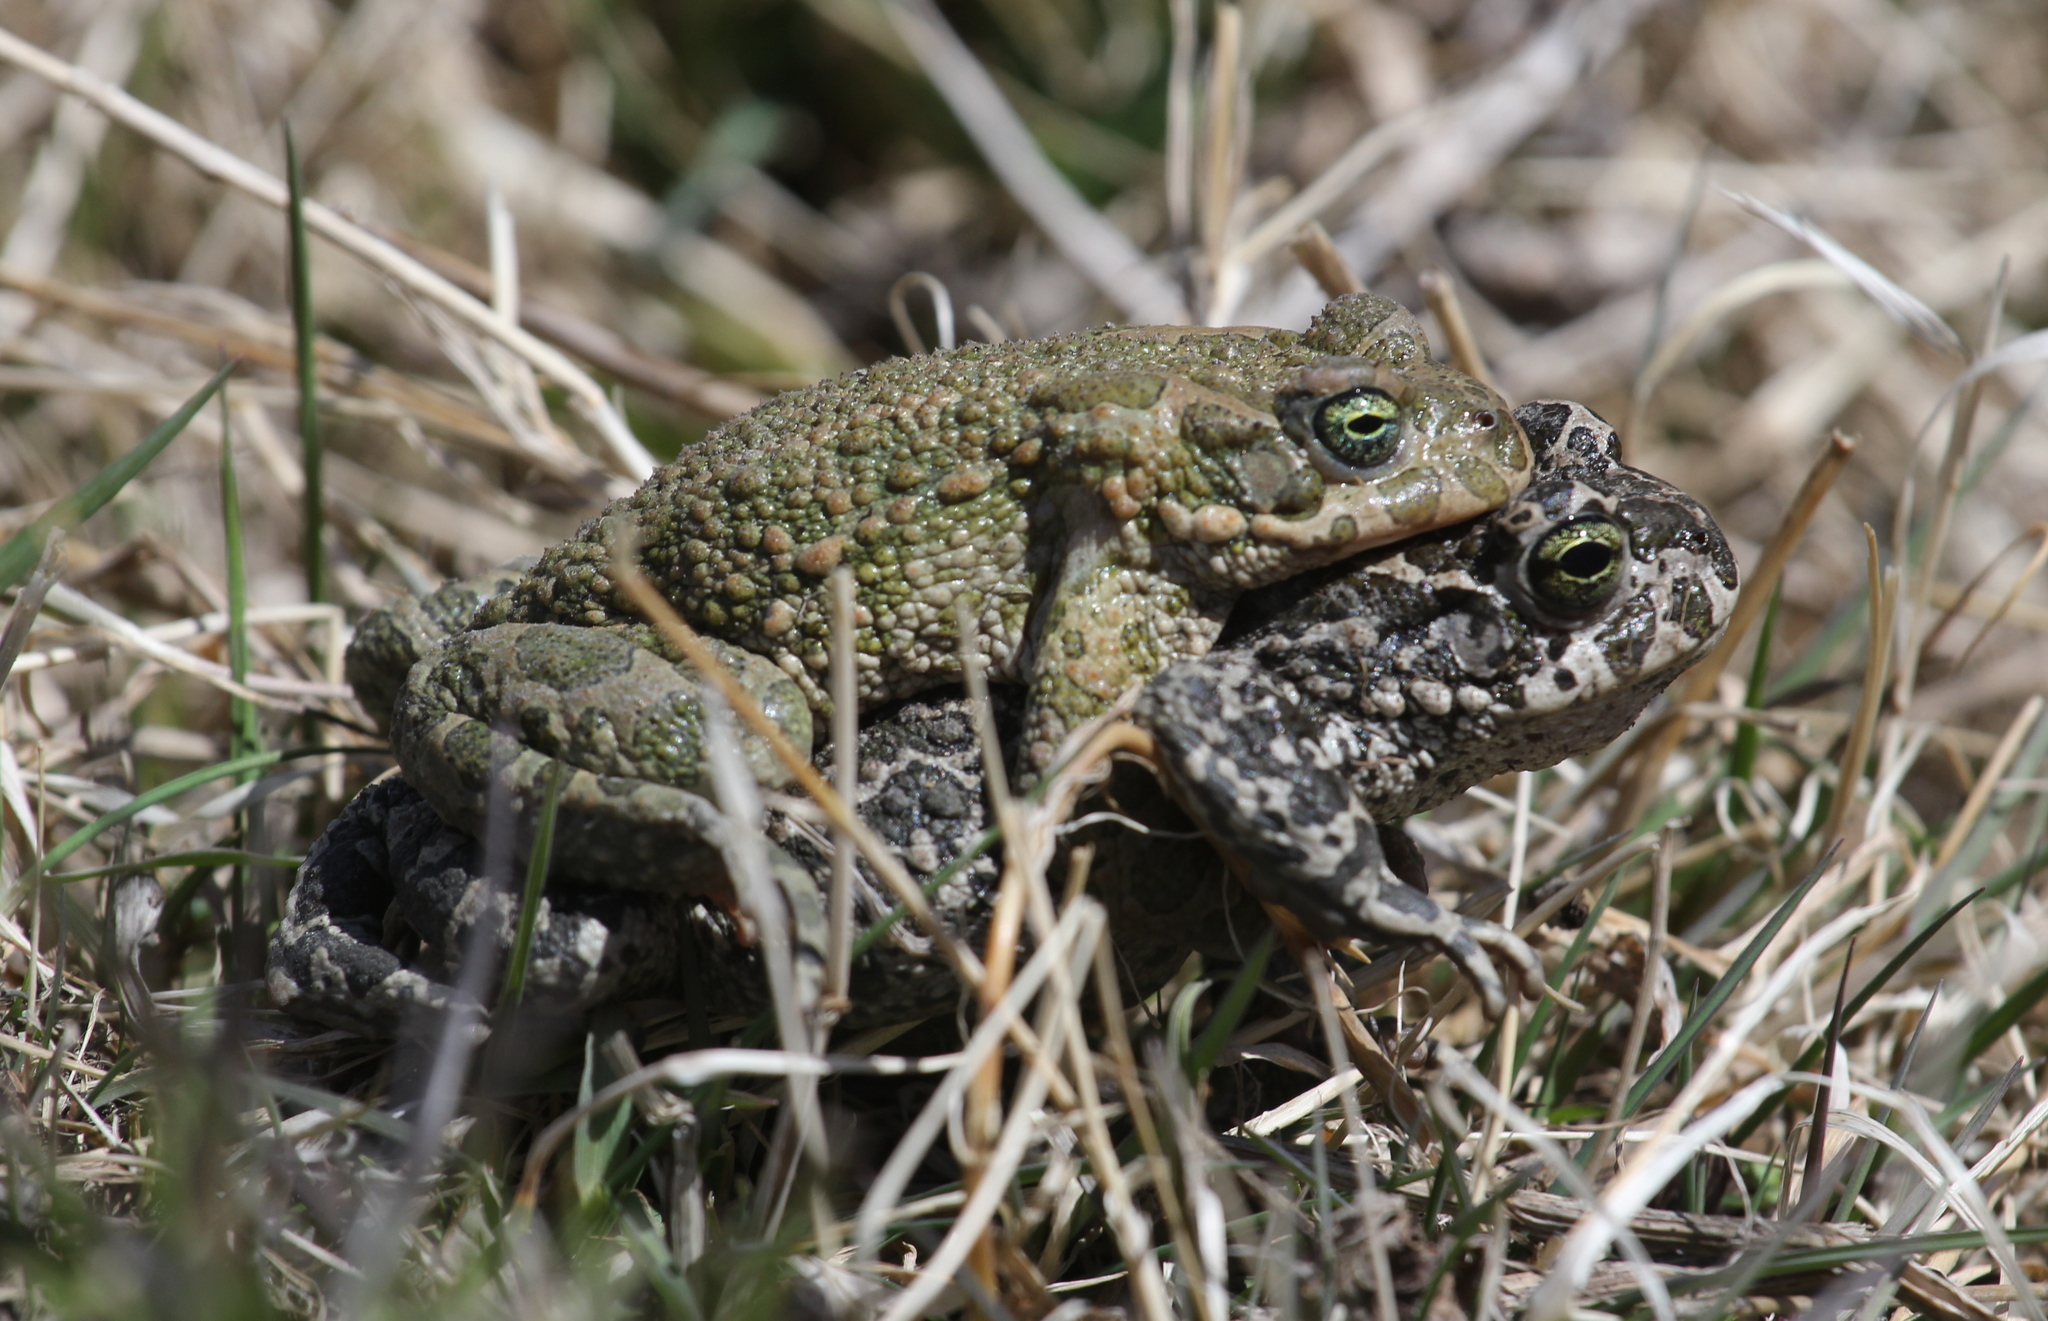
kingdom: Animalia
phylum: Chordata
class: Amphibia
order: Anura
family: Bufonidae
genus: Bufotes
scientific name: Bufotes viridis
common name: European green toad
